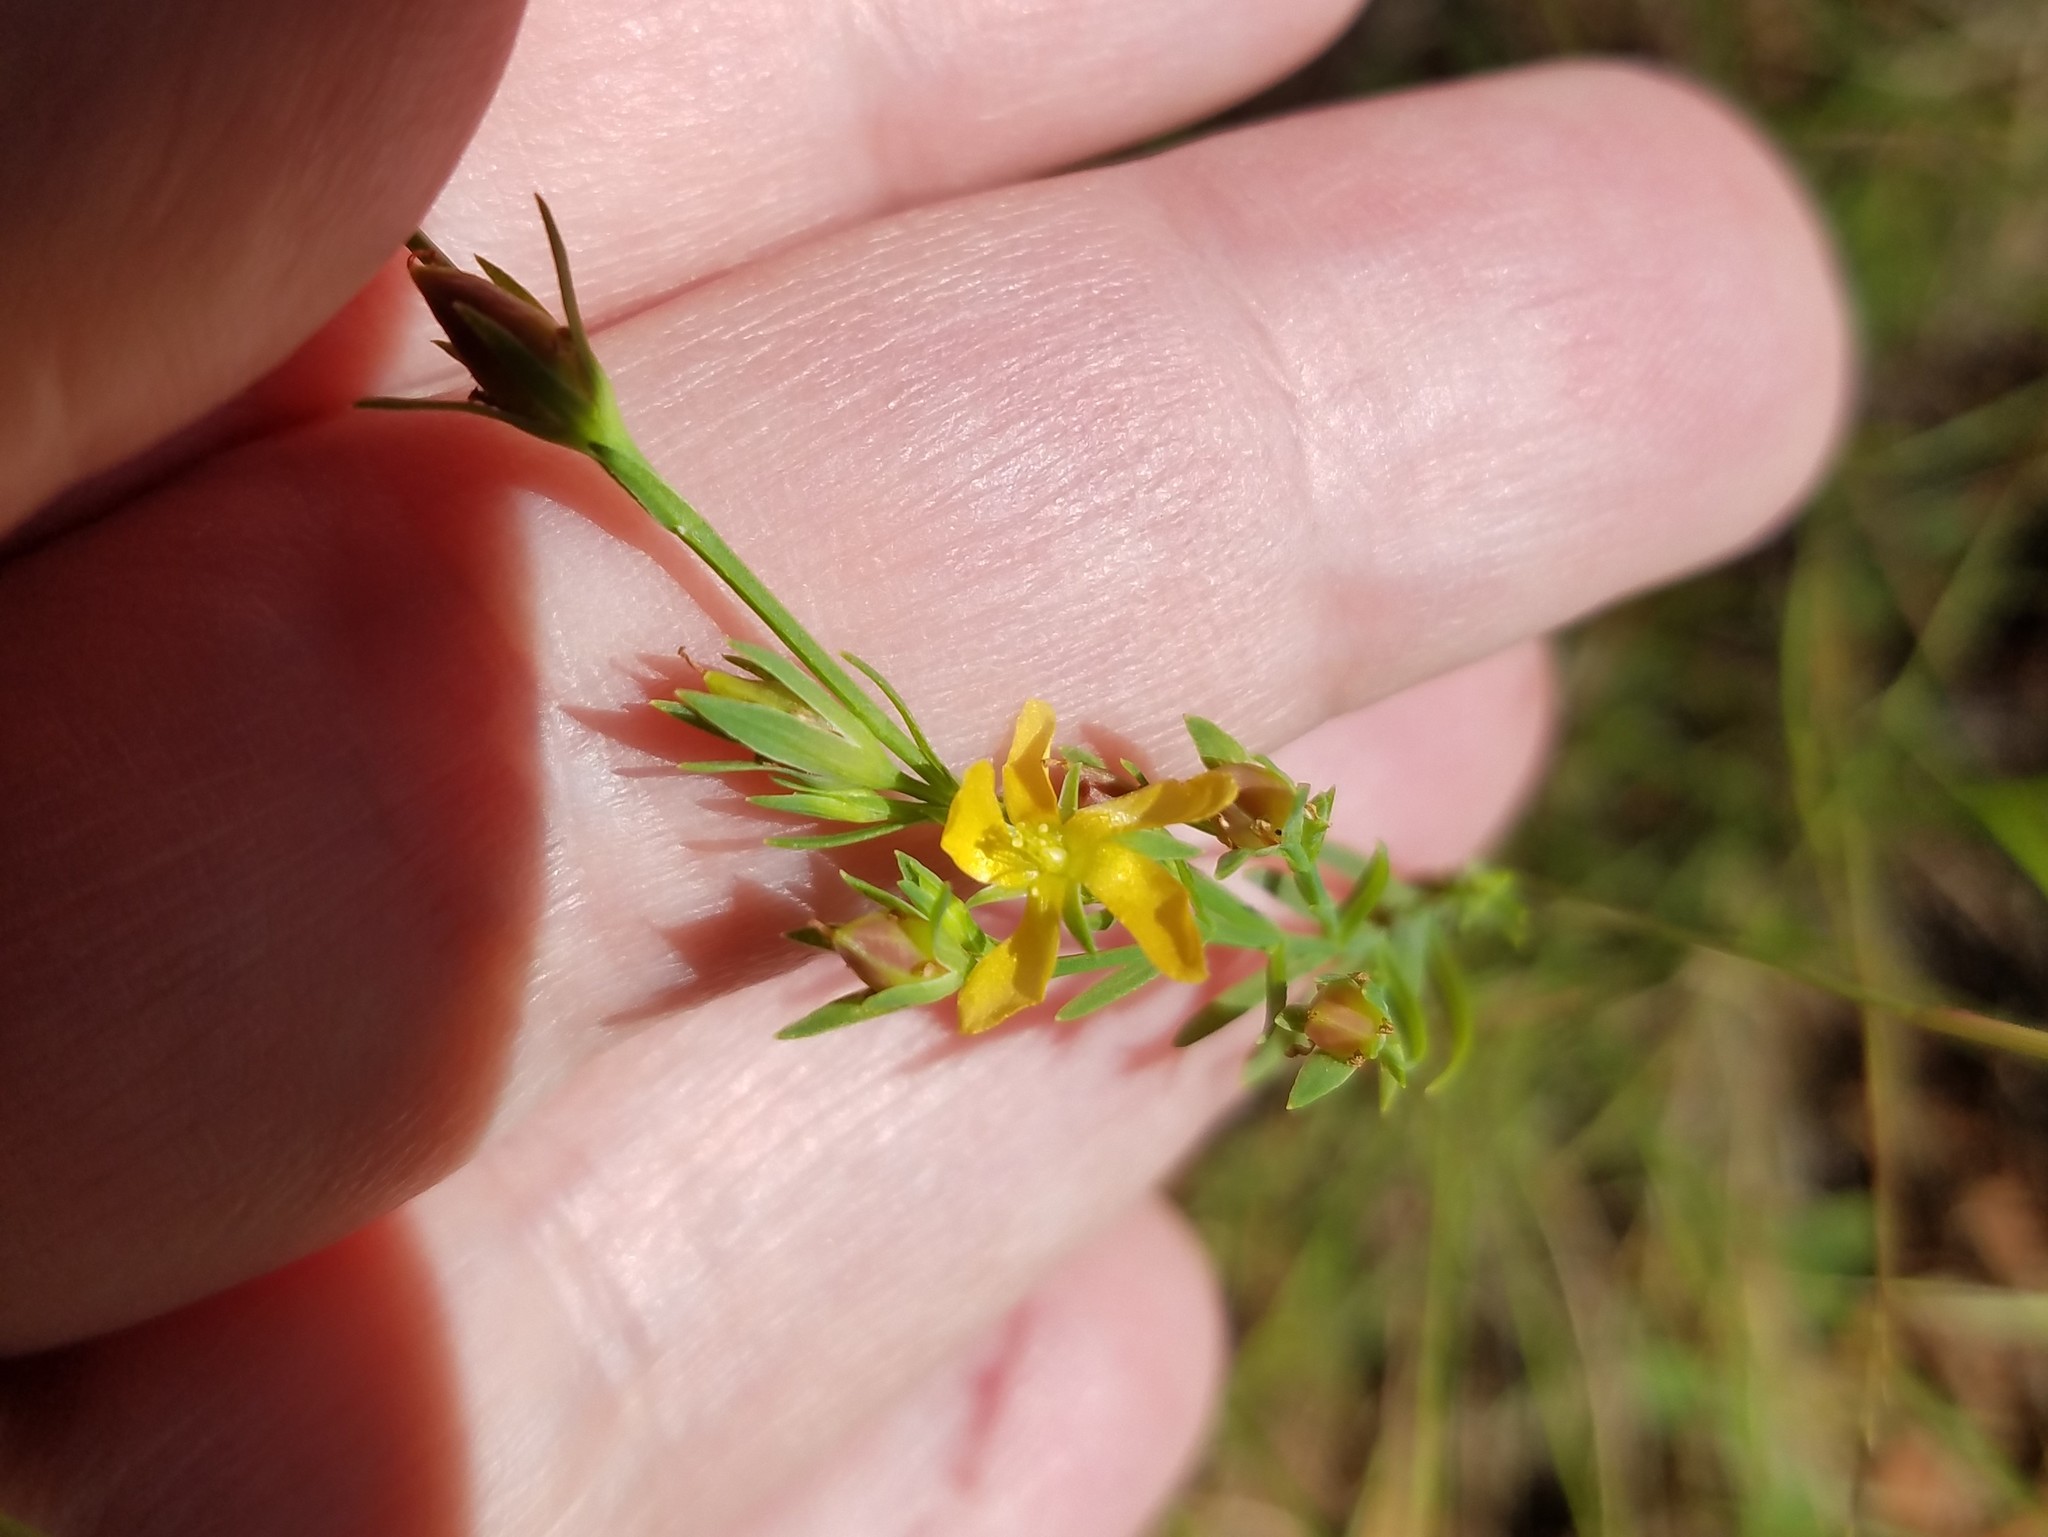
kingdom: Plantae
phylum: Tracheophyta
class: Magnoliopsida
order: Malpighiales
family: Hypericaceae
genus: Hypericum
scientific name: Hypericum drummondii
